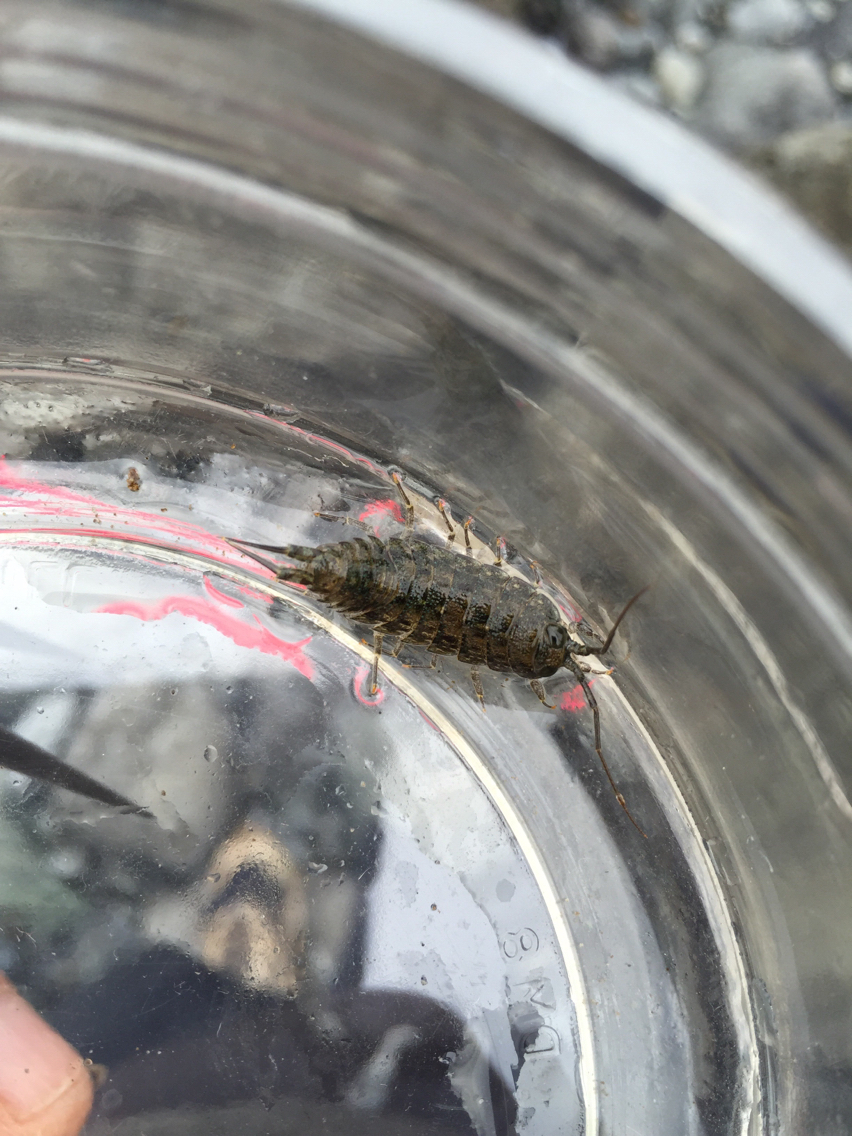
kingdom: Animalia
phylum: Arthropoda
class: Malacostraca
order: Isopoda
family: Ligiidae
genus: Ligia
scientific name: Ligia occidentalis
